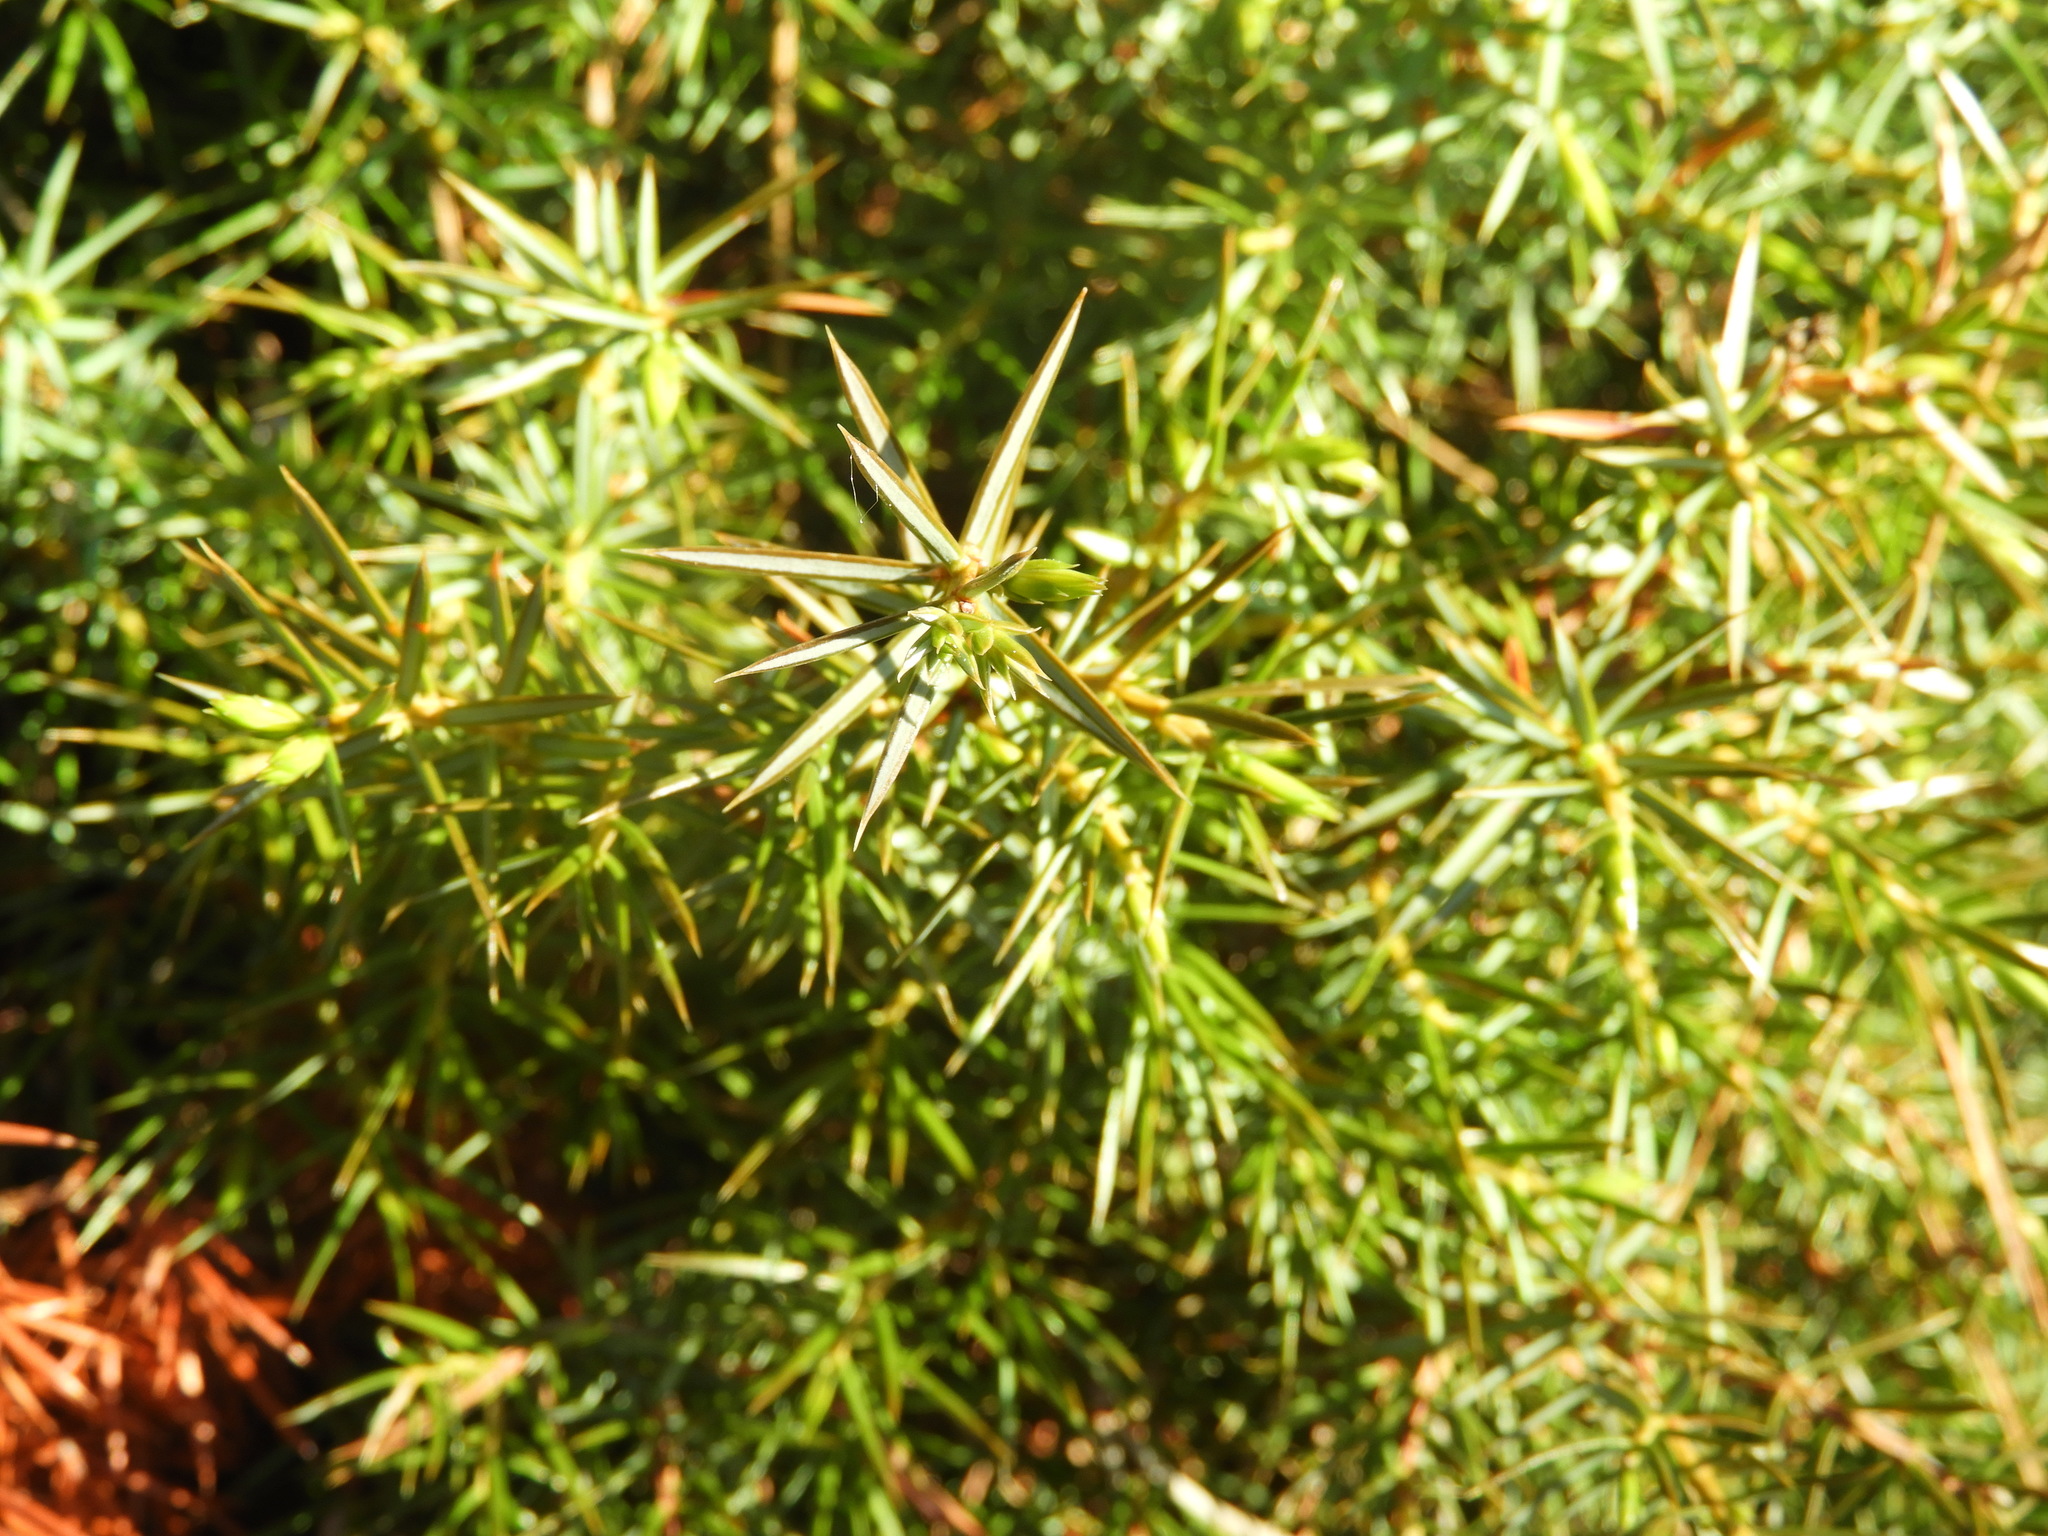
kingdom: Plantae
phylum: Tracheophyta
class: Pinopsida
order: Pinales
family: Cupressaceae
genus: Juniperus
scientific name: Juniperus communis
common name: Common juniper
